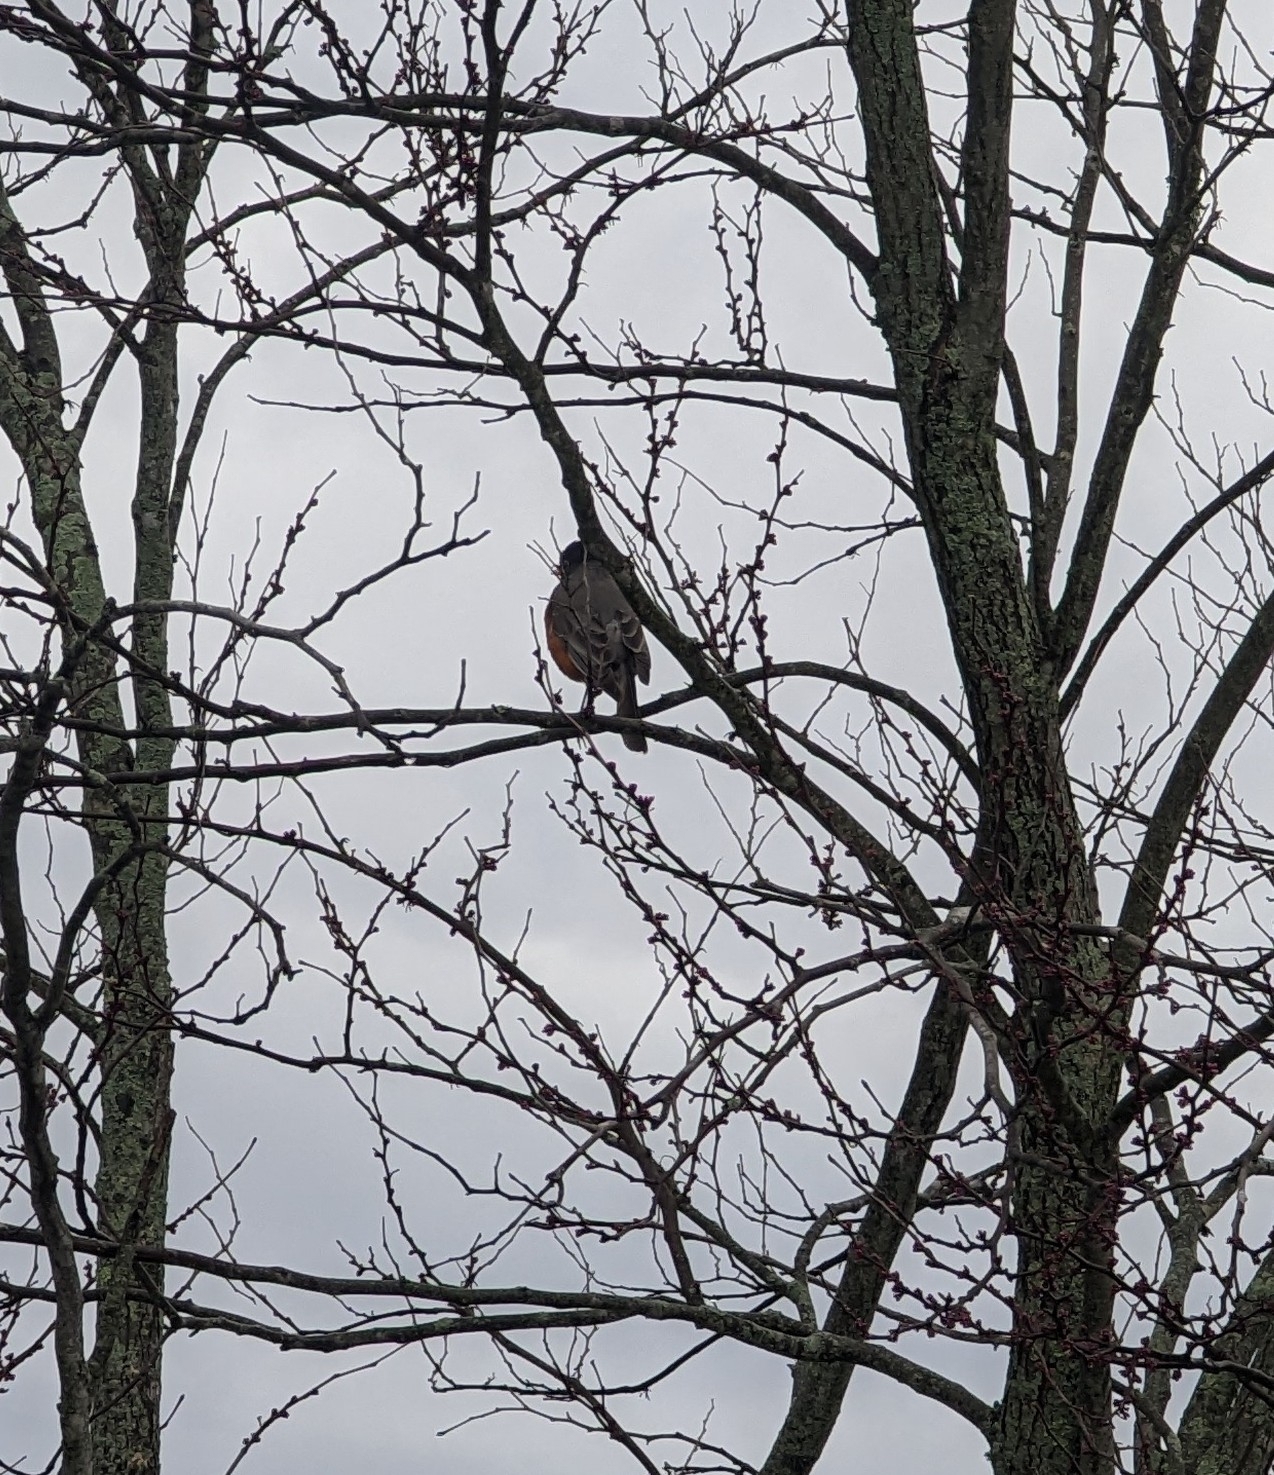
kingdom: Animalia
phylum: Chordata
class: Aves
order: Passeriformes
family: Turdidae
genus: Turdus
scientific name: Turdus migratorius
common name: American robin
